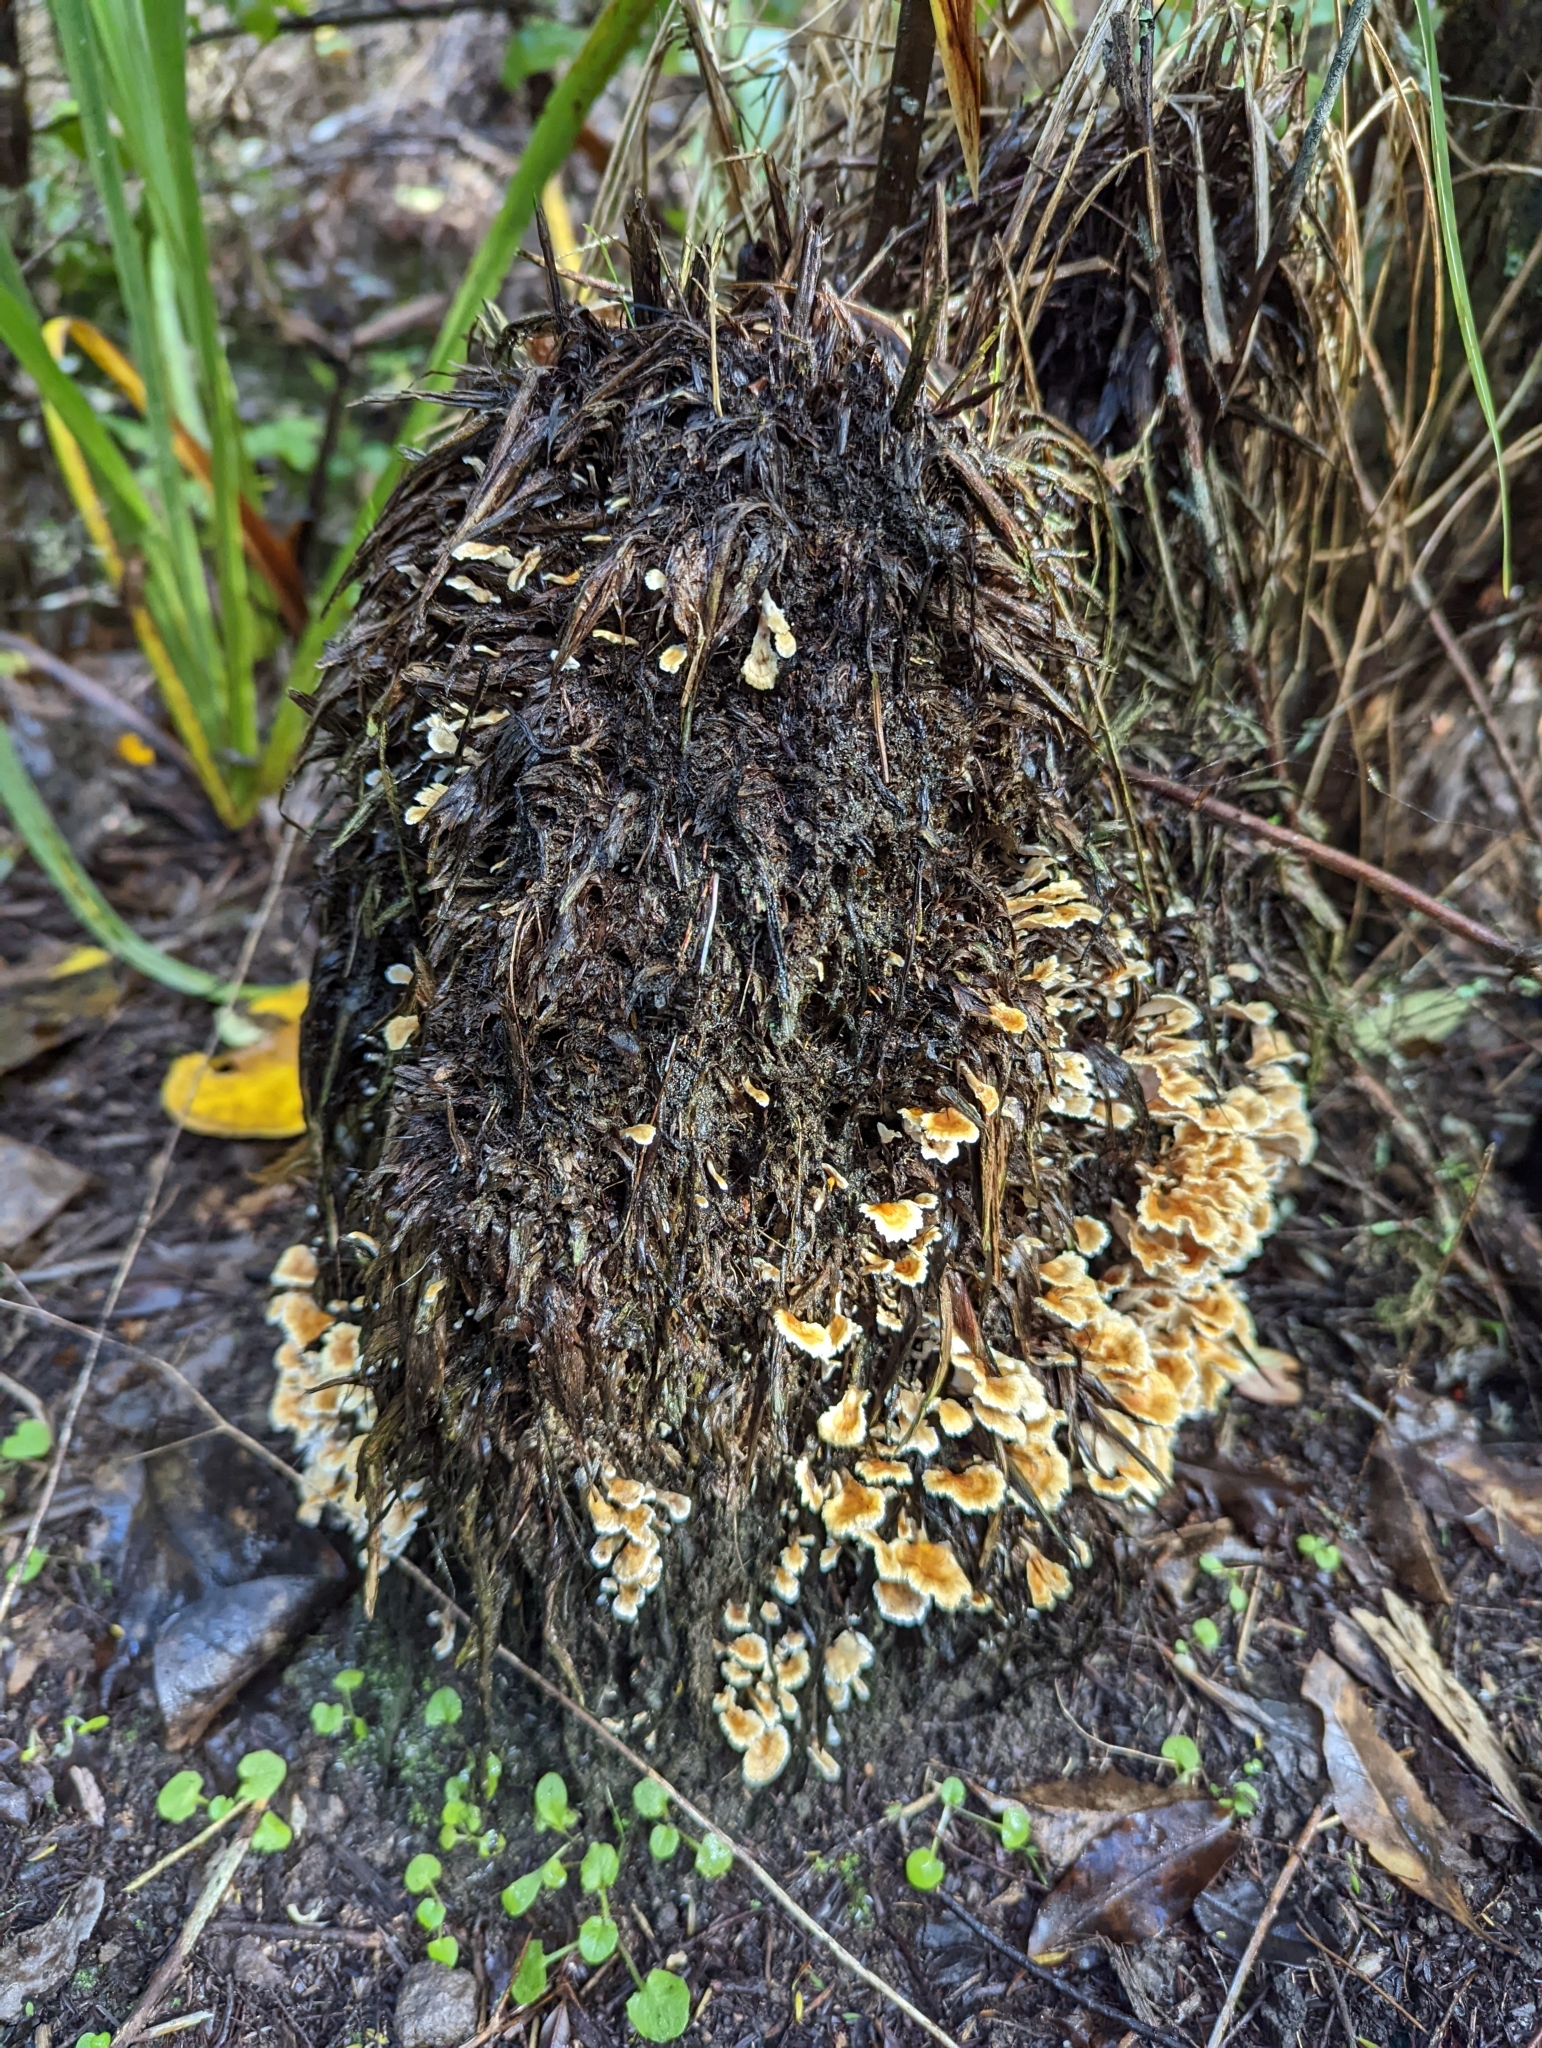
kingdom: Fungi
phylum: Basidiomycota
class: Agaricomycetes
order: Amylocorticiales
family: Amylocorticiaceae
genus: Podoserpula
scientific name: Podoserpula
